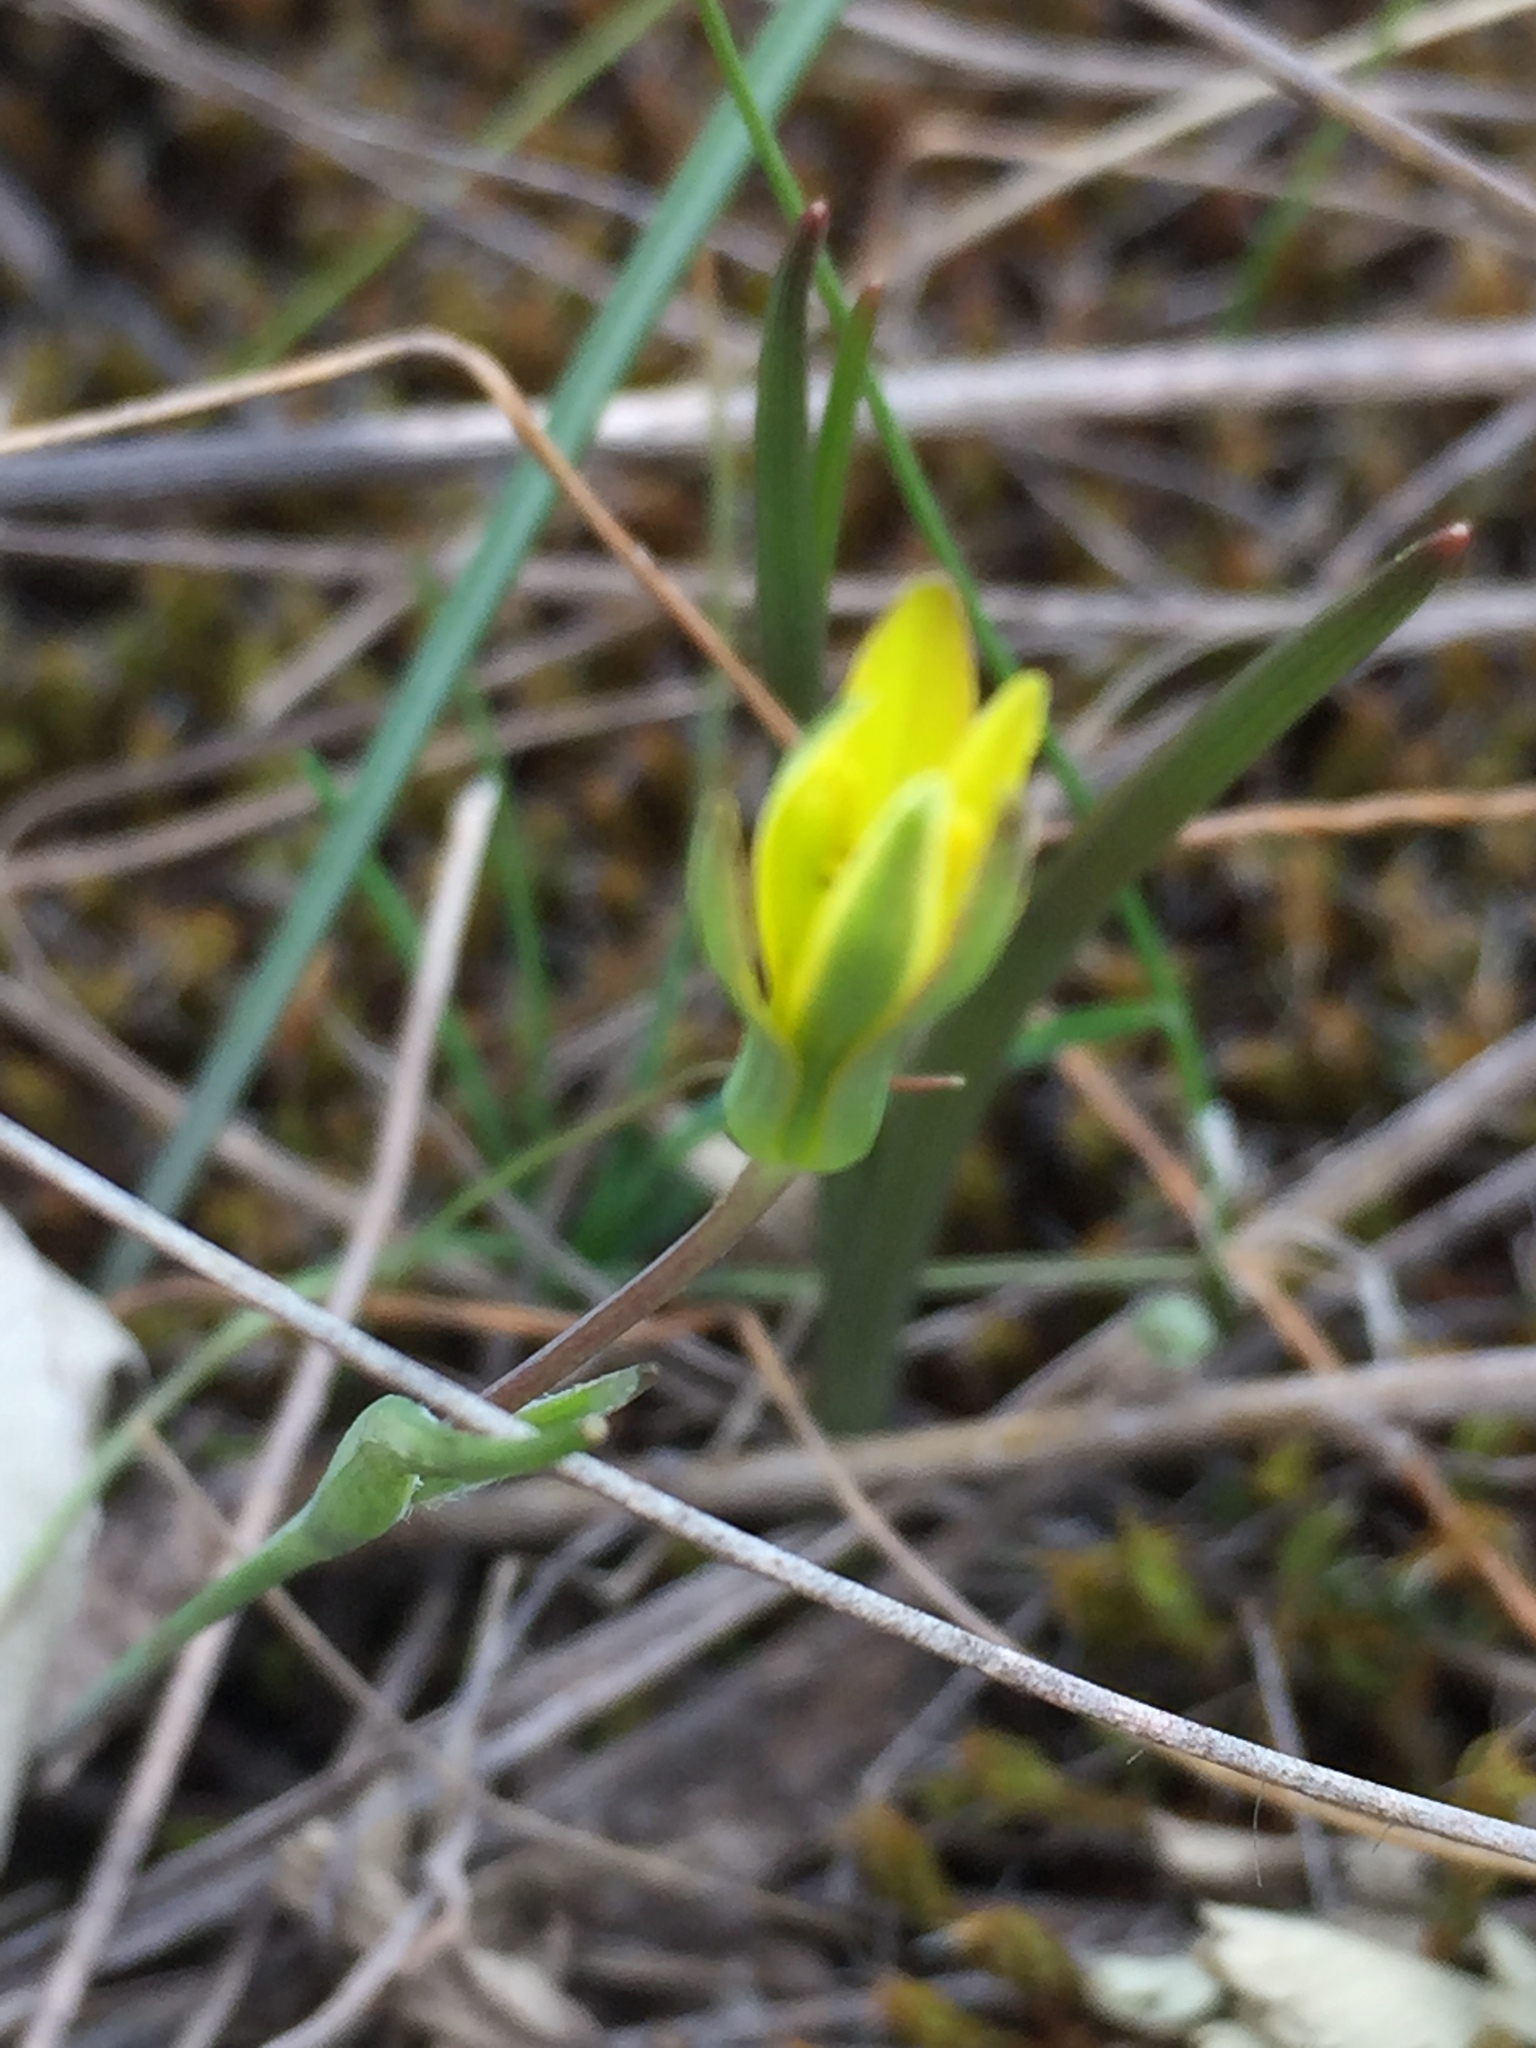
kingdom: Plantae
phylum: Tracheophyta
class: Liliopsida
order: Liliales
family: Liliaceae
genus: Gagea
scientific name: Gagea pusilla
